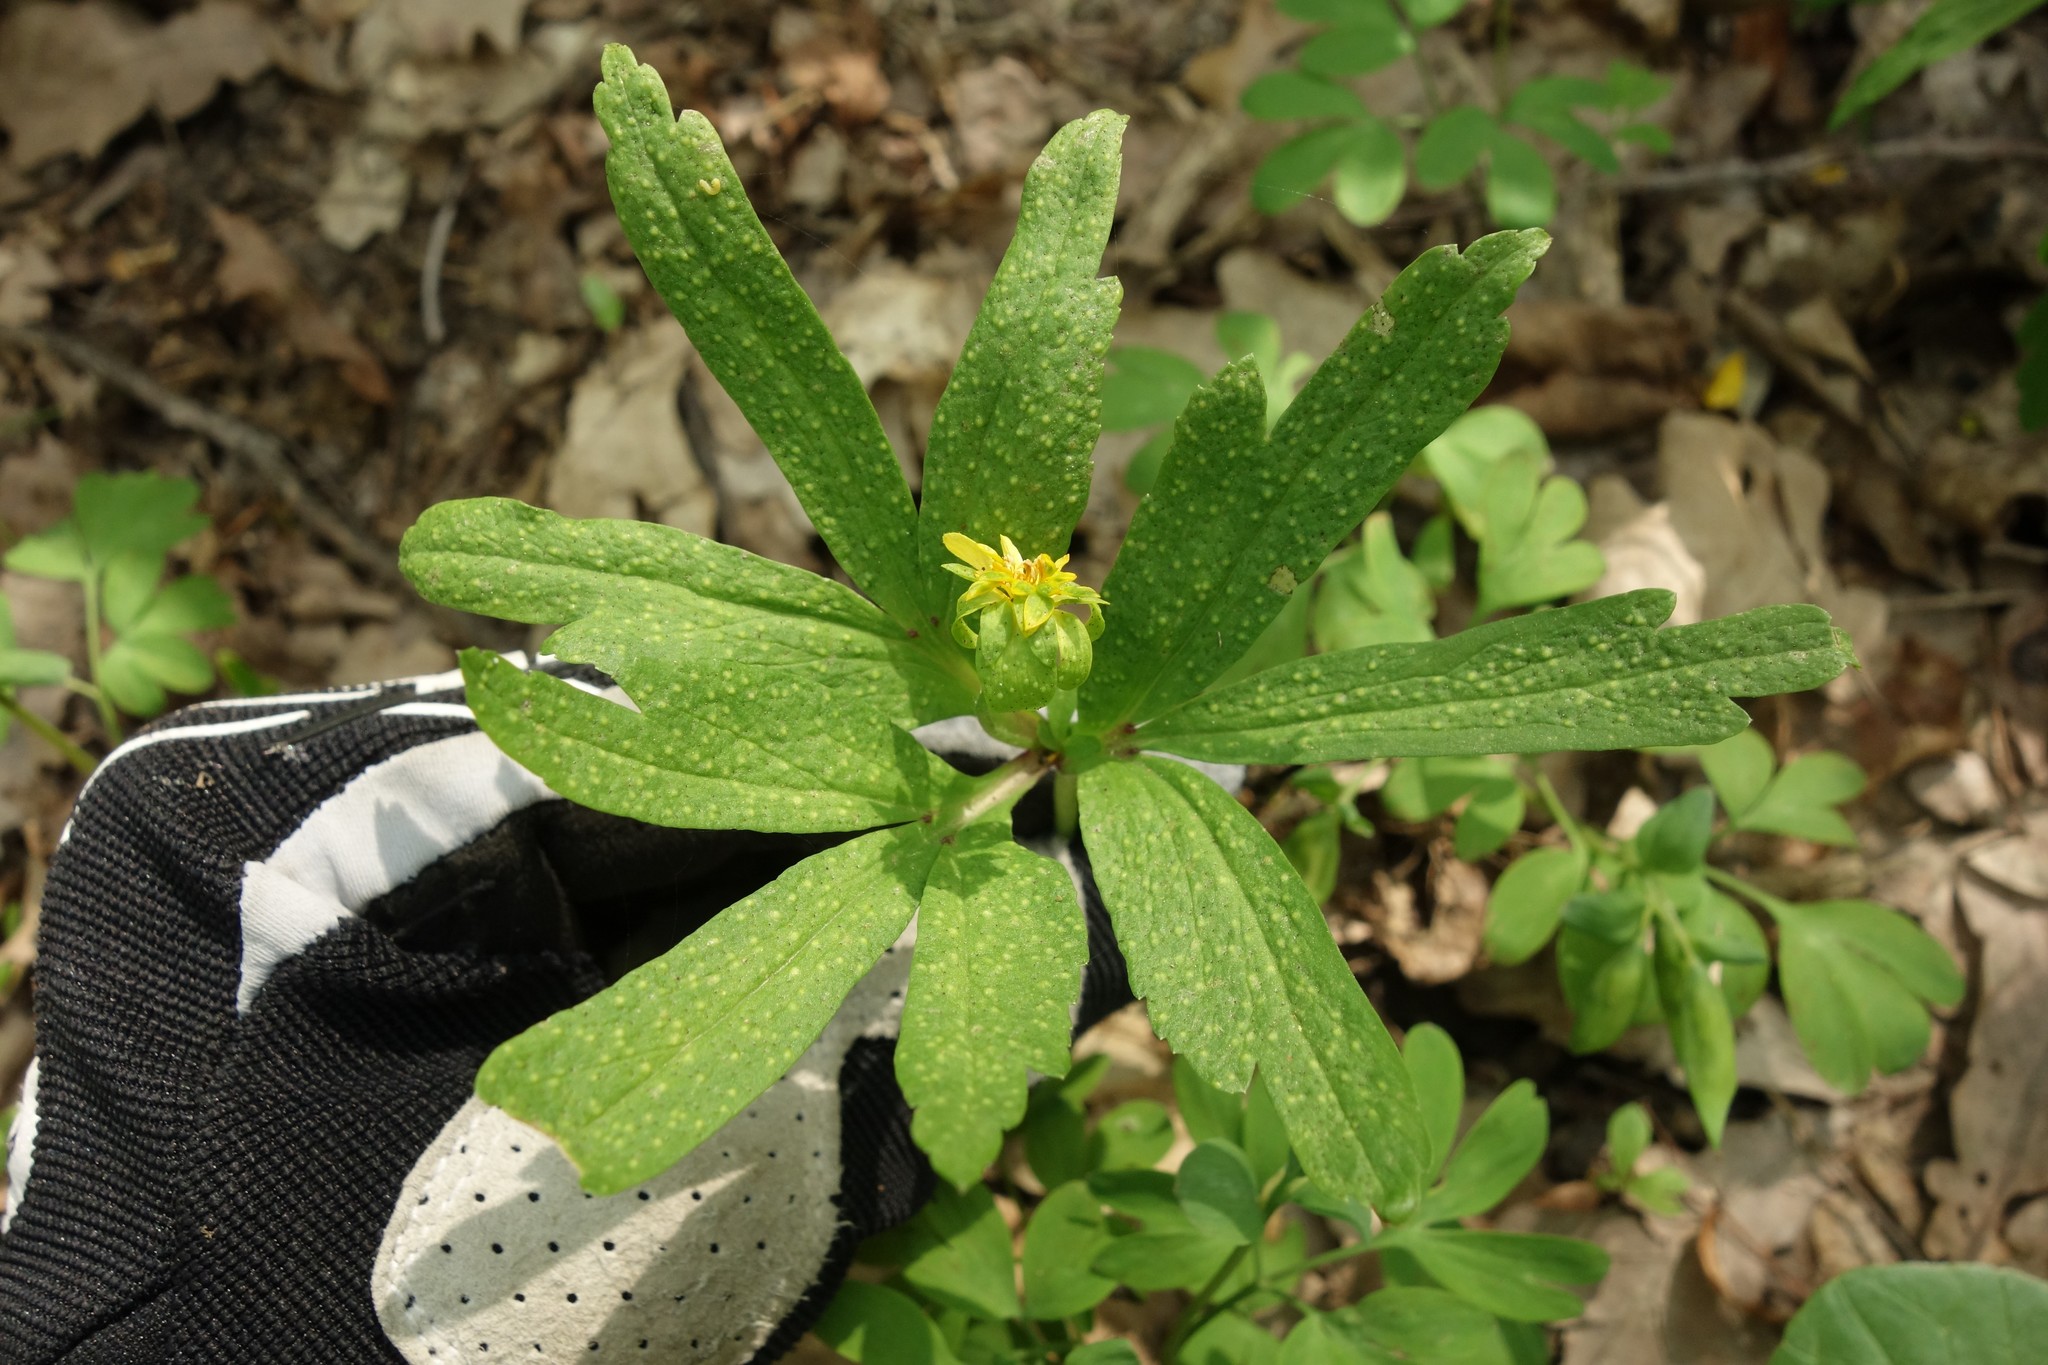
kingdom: Fungi
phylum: Basidiomycota
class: Pucciniomycetes
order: Pucciniales
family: Tranzscheliaceae
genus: Tranzschelia
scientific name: Tranzschelia pruni-spinosae
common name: Blackthorn rust
